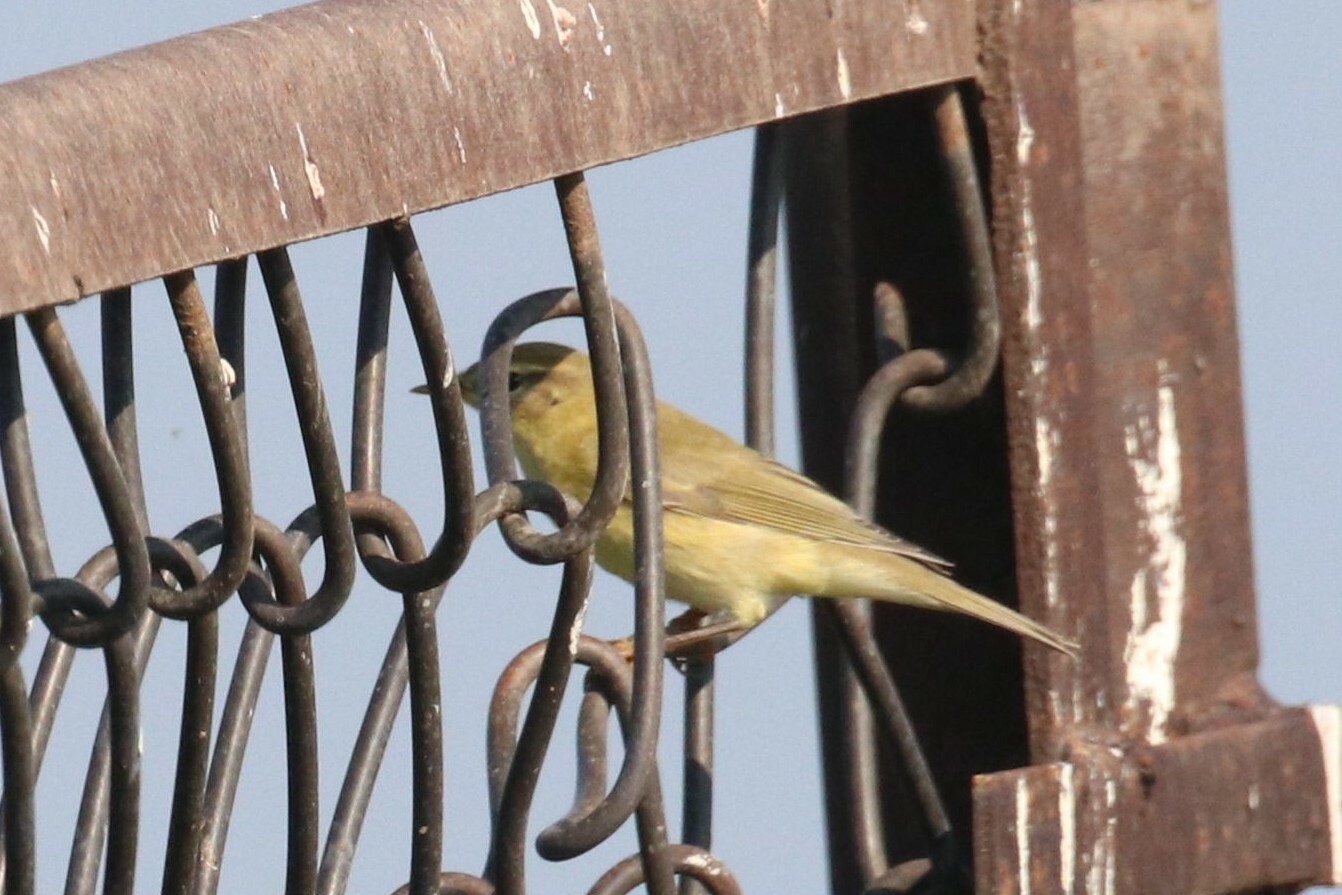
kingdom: Animalia
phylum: Chordata
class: Aves
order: Passeriformes
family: Phylloscopidae
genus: Phylloscopus
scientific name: Phylloscopus trochilus
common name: Willow warbler
